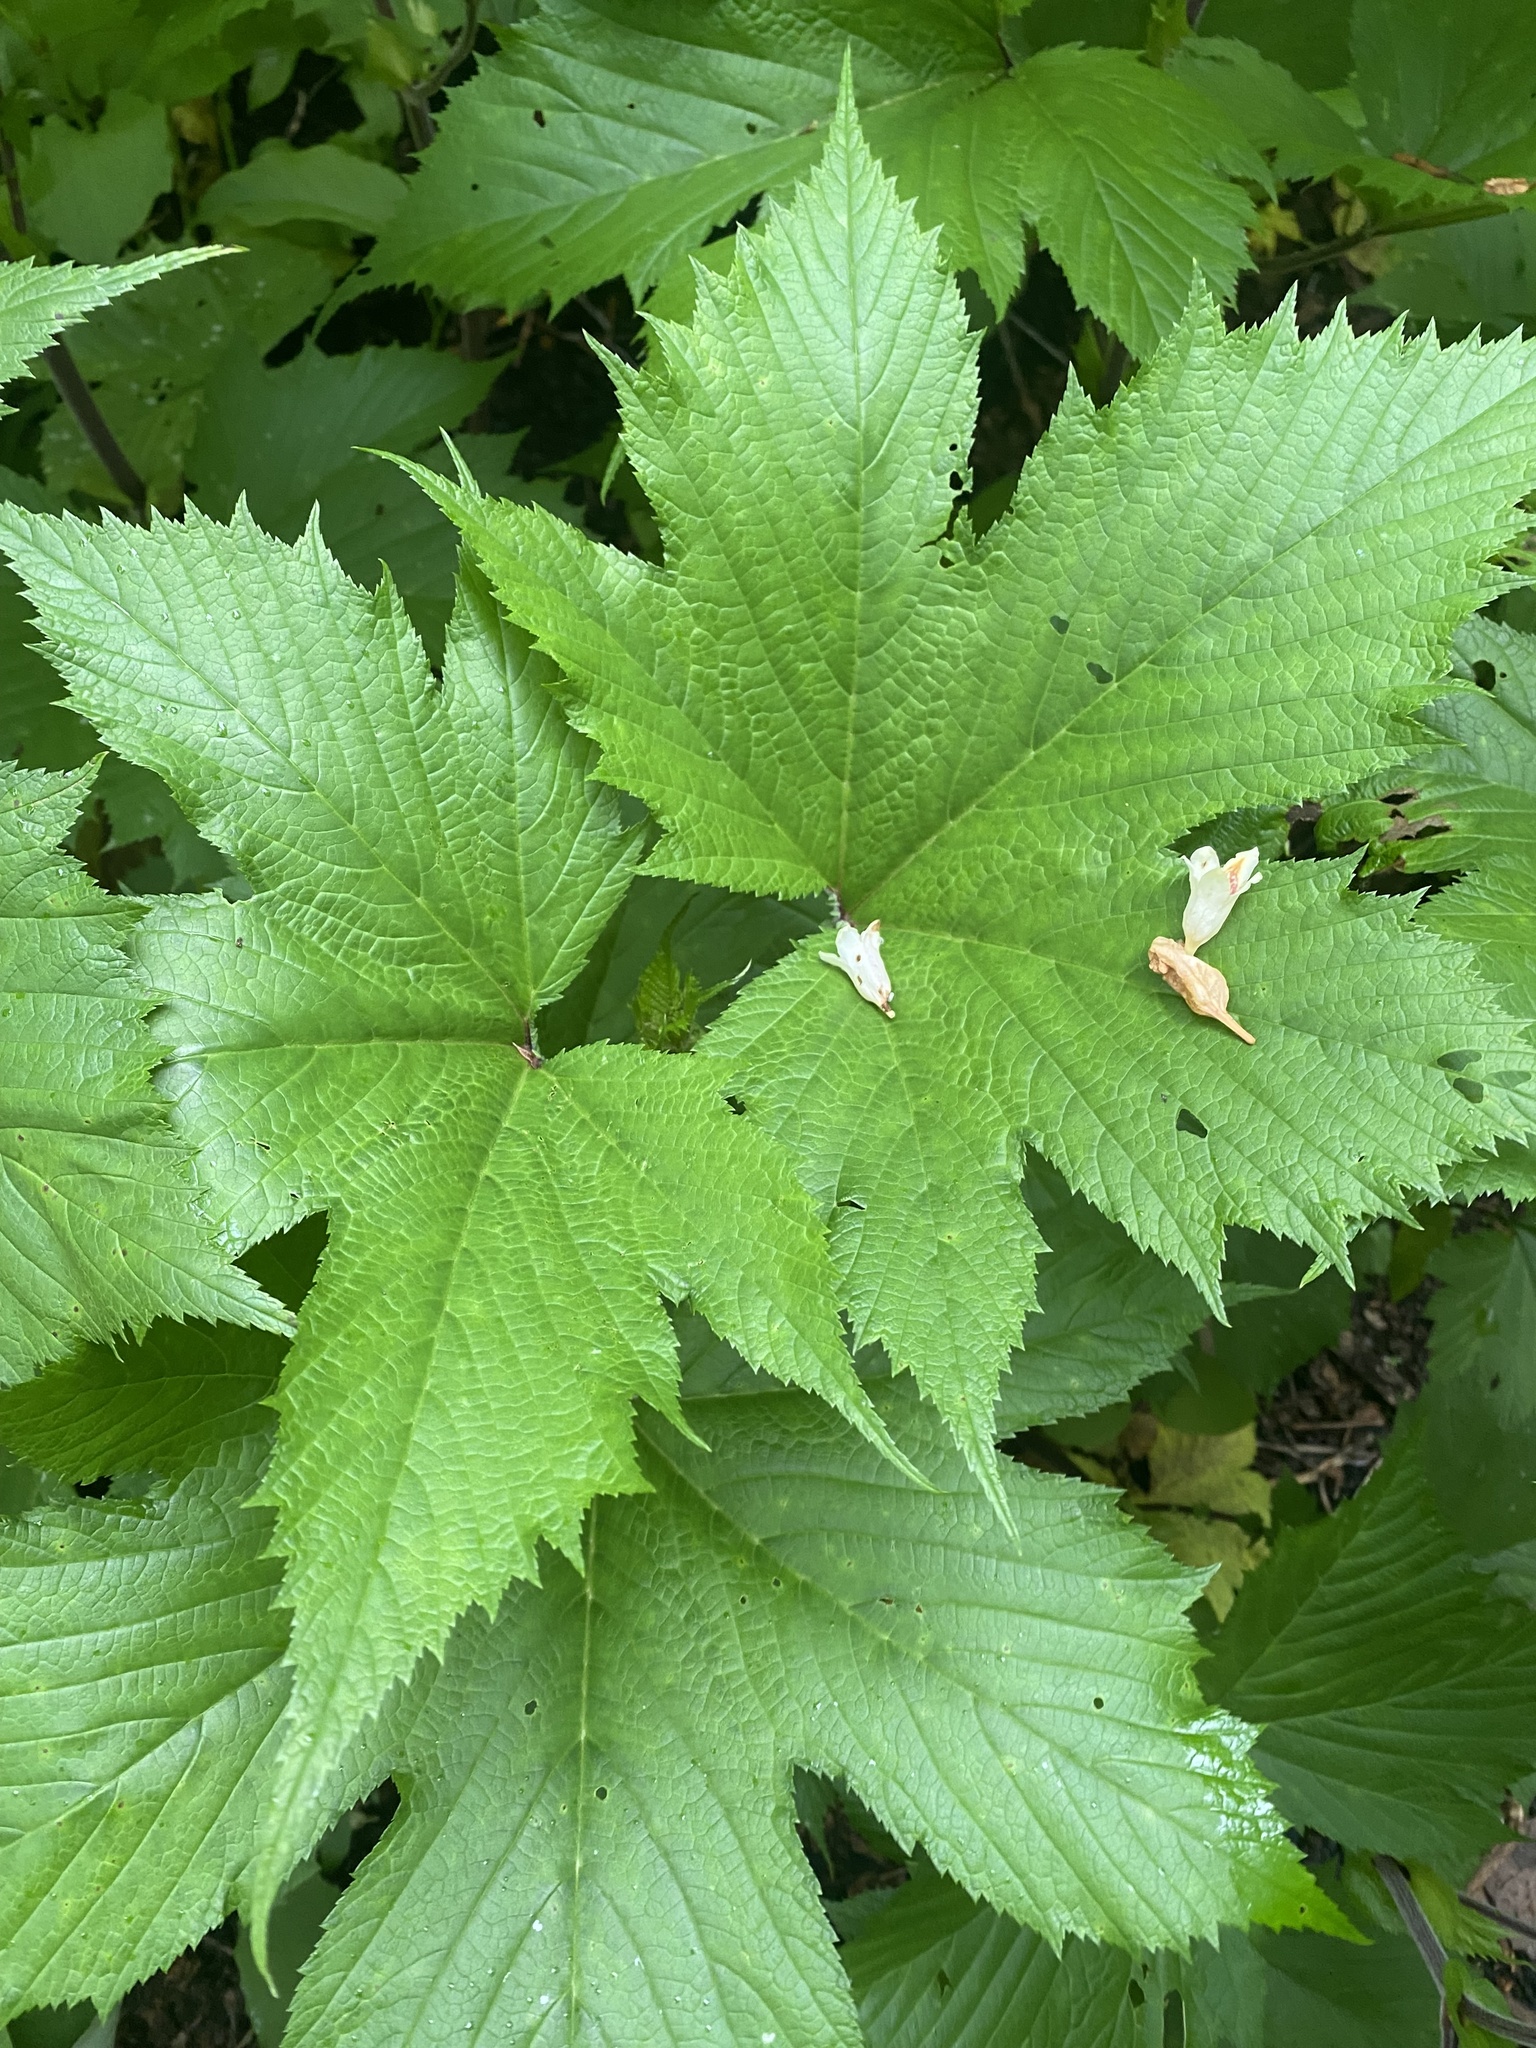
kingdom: Plantae
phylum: Tracheophyta
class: Magnoliopsida
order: Rosales
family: Rosaceae
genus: Filipendula
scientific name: Filipendula camtschatica
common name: Giant meadowsweet
